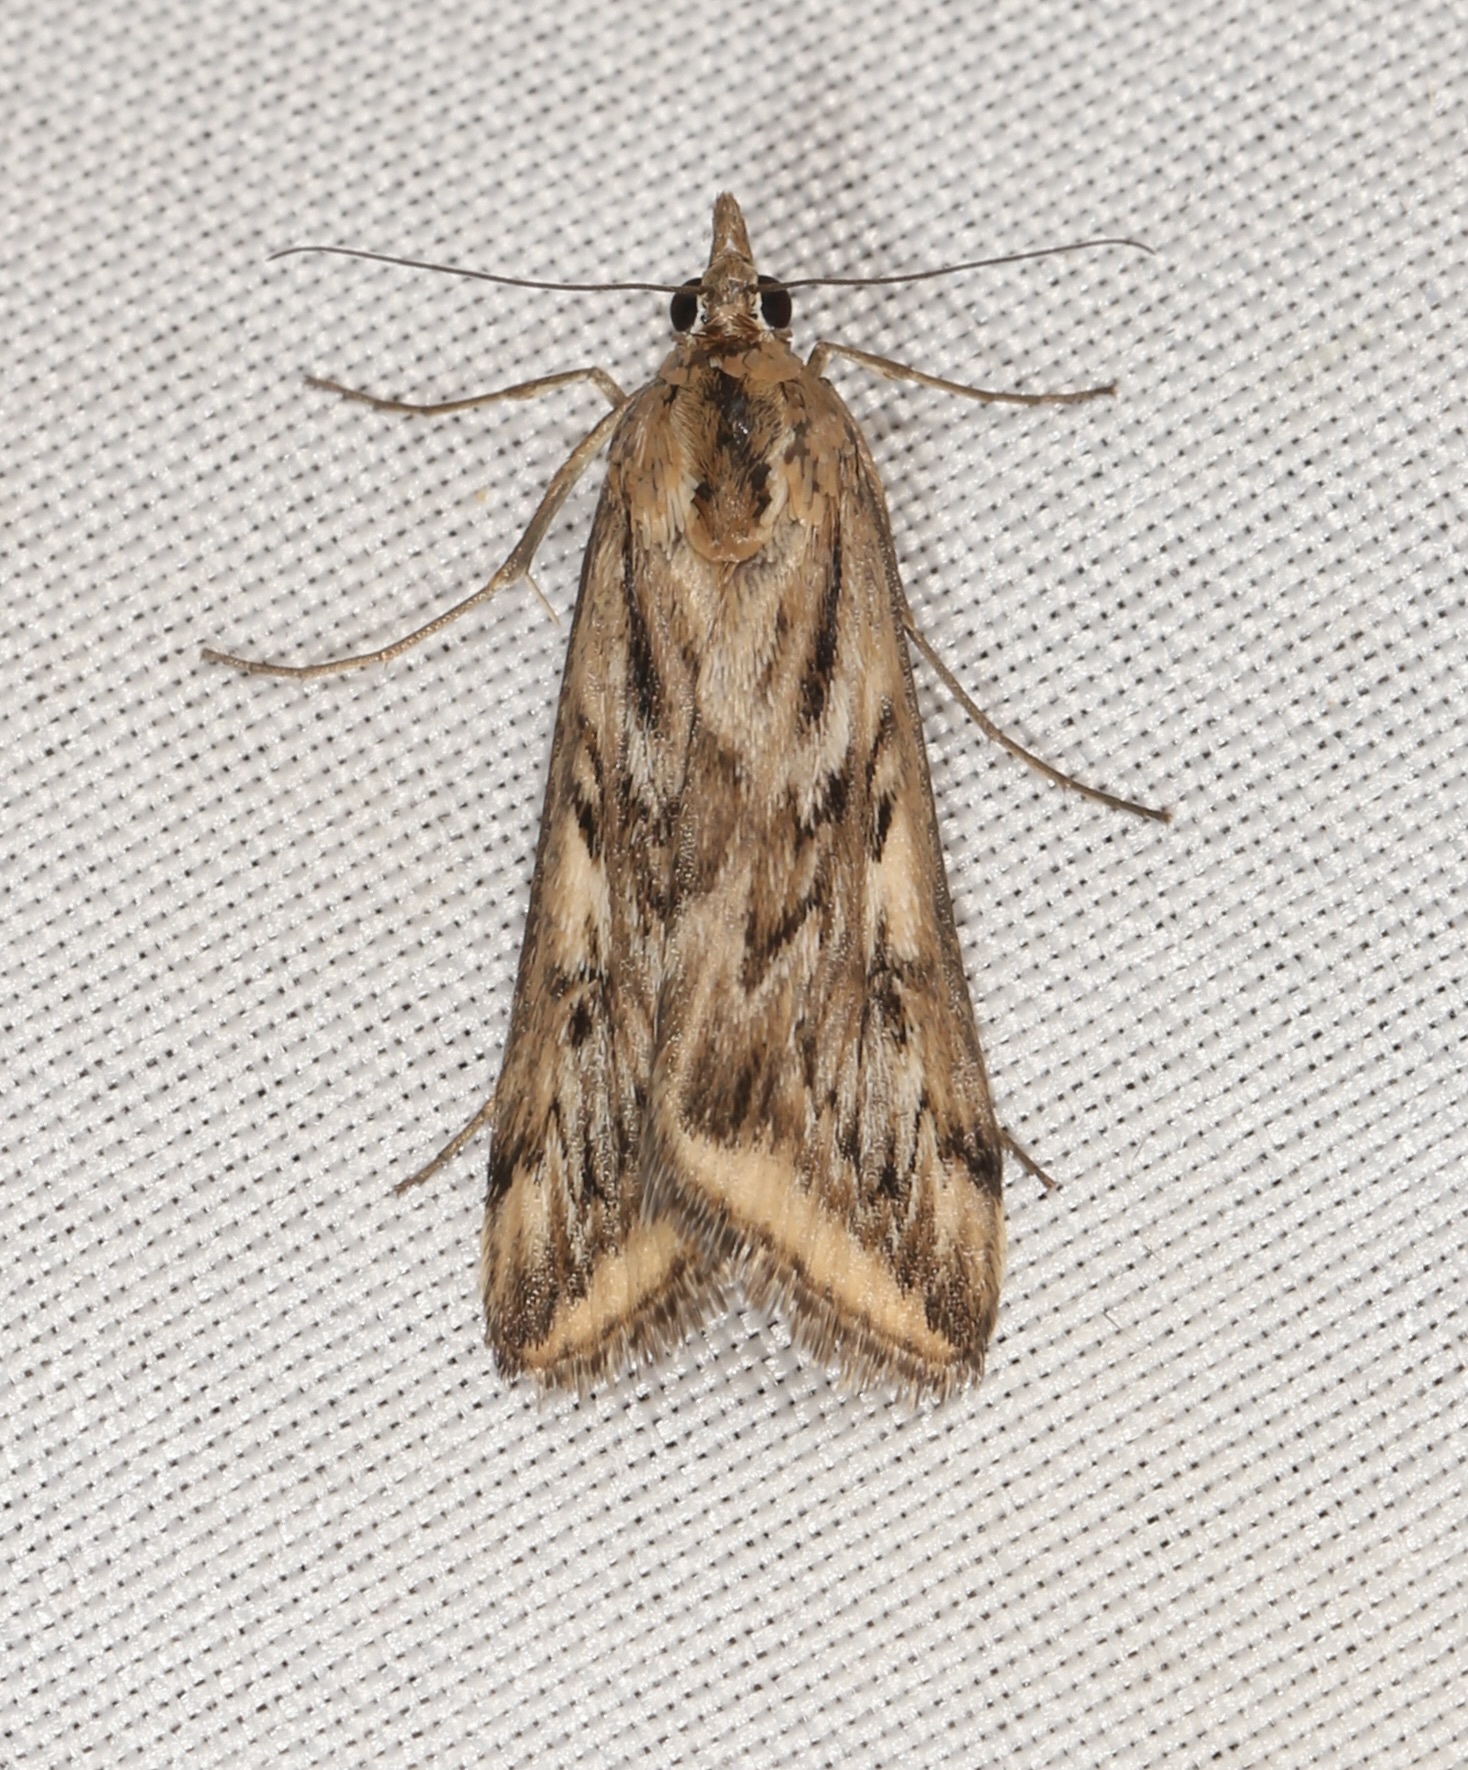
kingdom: Animalia
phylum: Arthropoda
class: Insecta
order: Lepidoptera
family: Crambidae
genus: Loxostege
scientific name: Loxostege cereralis
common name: Alfalfa webworm moth
